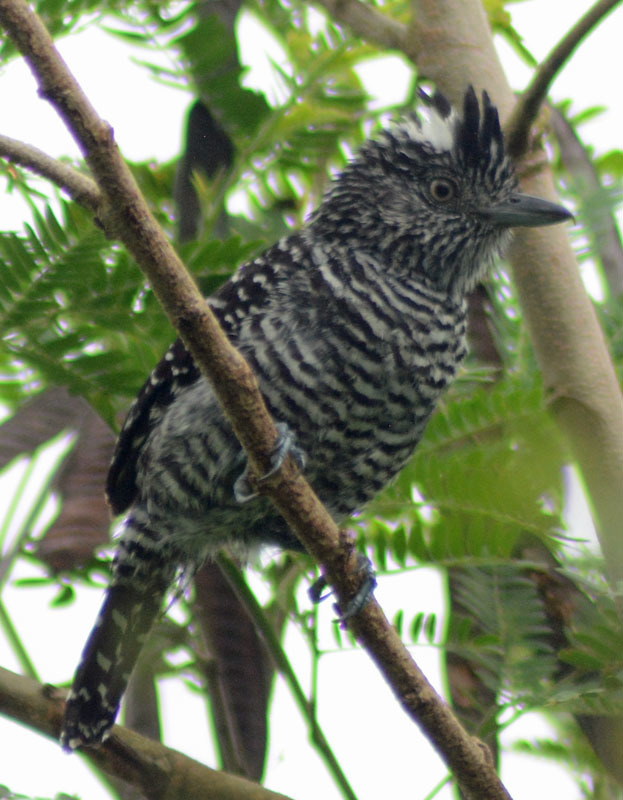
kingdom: Animalia
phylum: Chordata
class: Aves
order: Passeriformes
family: Thamnophilidae
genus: Thamnophilus
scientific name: Thamnophilus doliatus
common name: Barred antshrike
